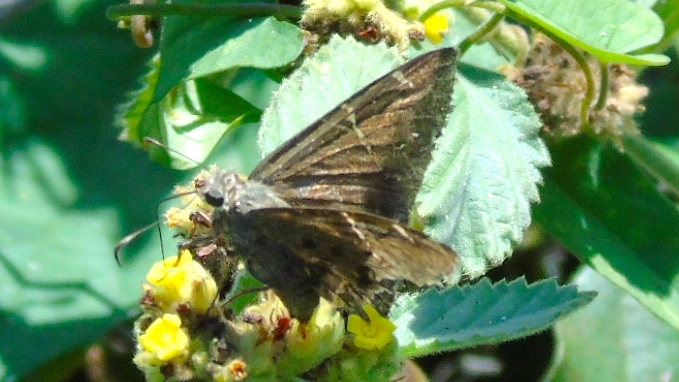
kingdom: Animalia
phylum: Arthropoda
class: Insecta
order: Lepidoptera
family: Hesperiidae
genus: Urbanus
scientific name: Urbanus procne
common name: Brown longtail
